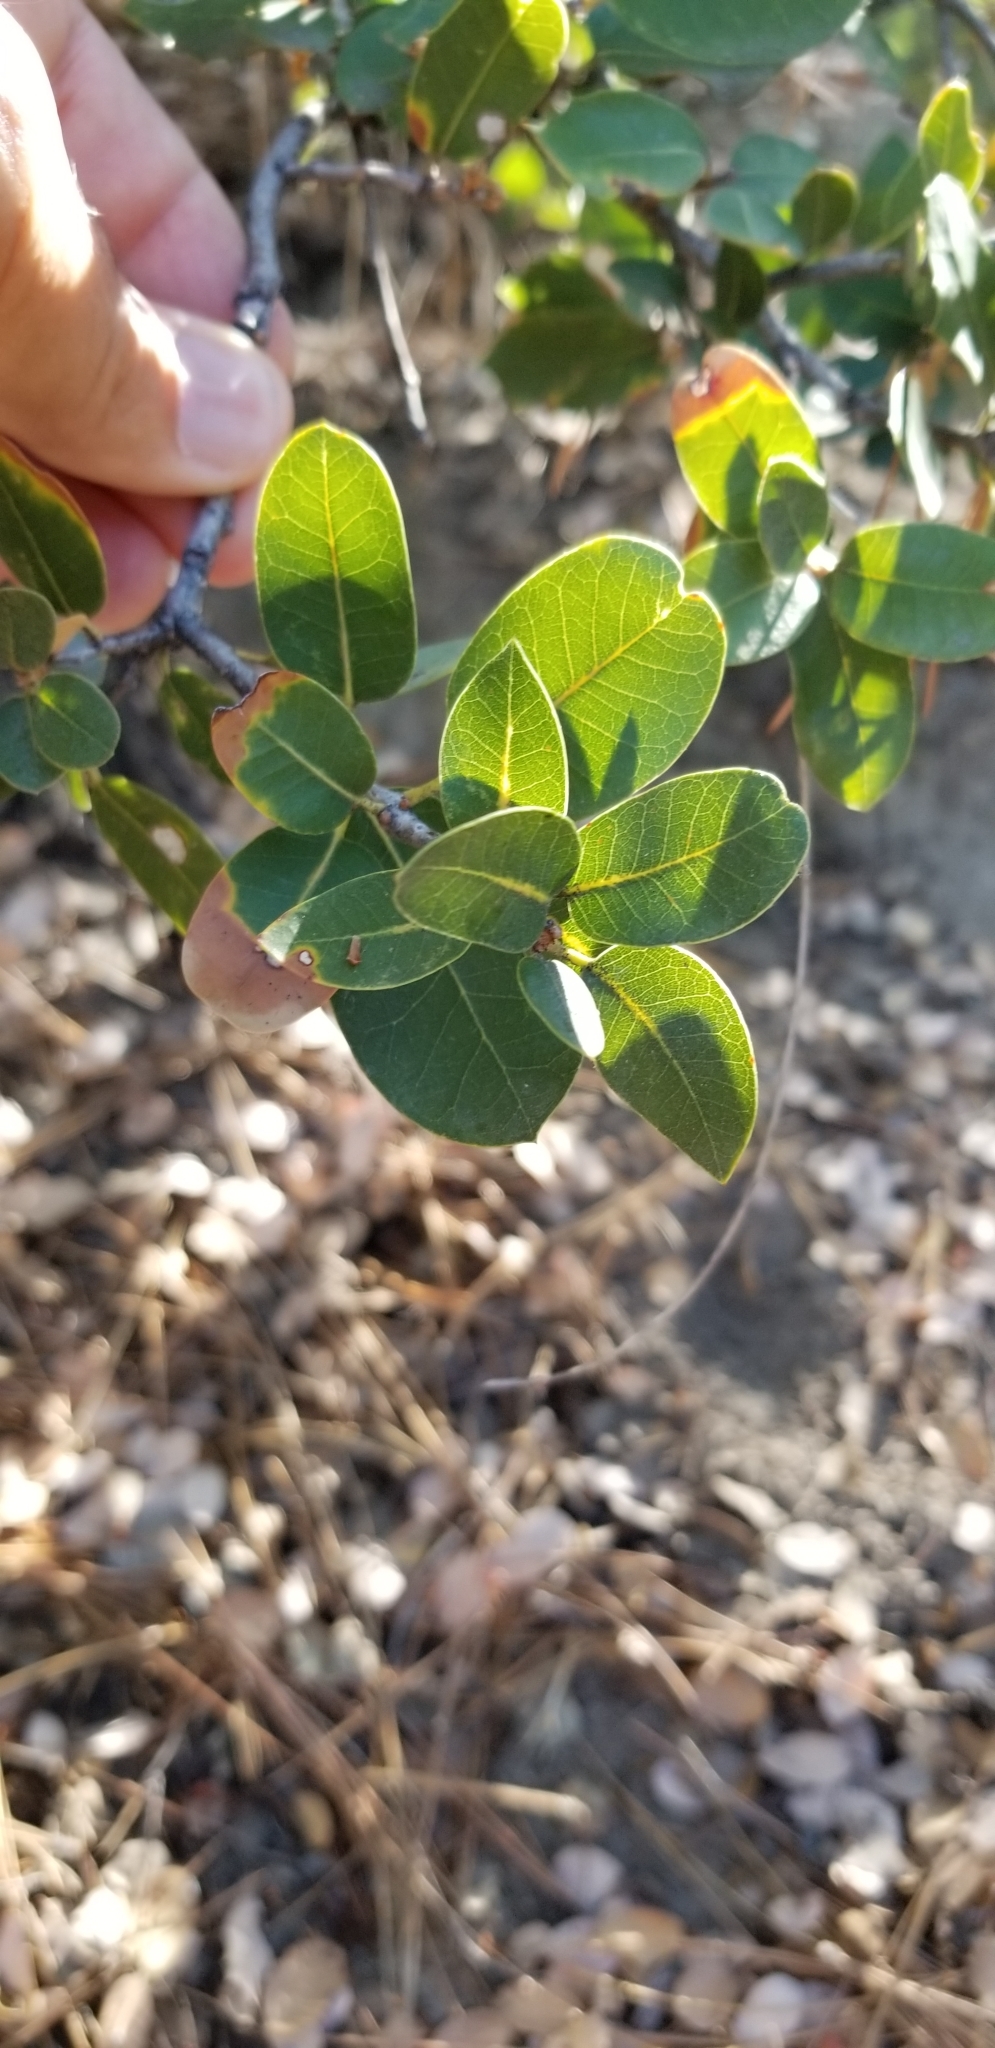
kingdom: Plantae
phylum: Tracheophyta
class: Magnoliopsida
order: Fagales
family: Fagaceae
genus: Quercus
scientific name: Quercus chrysolepis
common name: Canyon live oak
